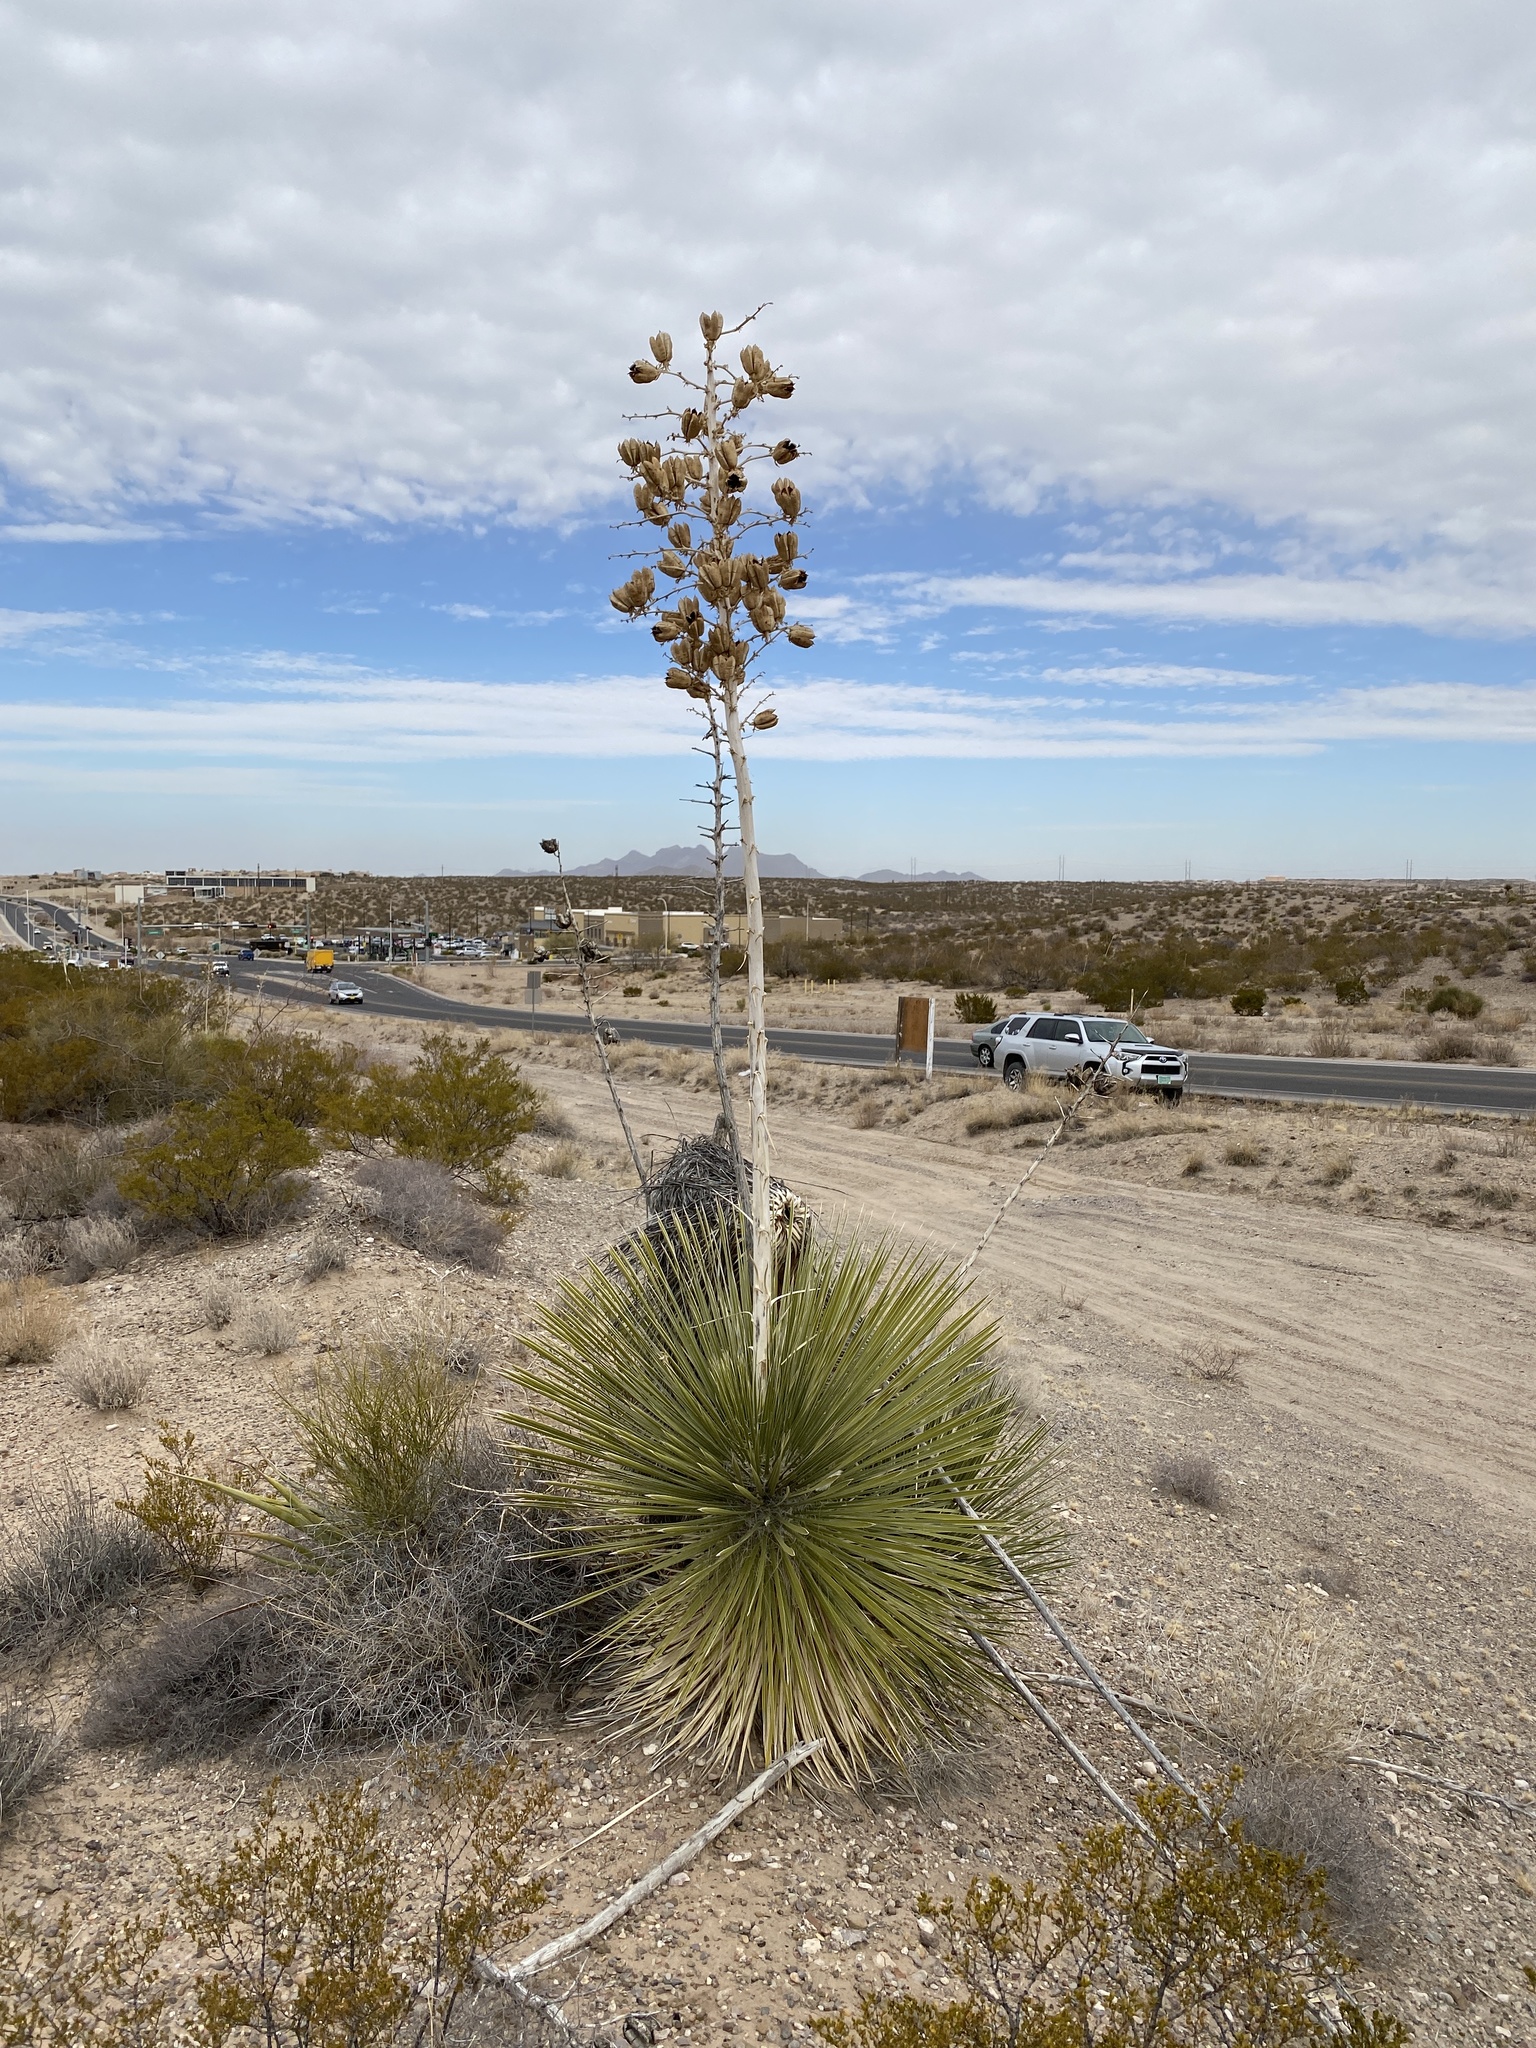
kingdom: Plantae
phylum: Tracheophyta
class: Liliopsida
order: Asparagales
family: Asparagaceae
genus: Yucca
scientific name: Yucca elata
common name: Palmella
